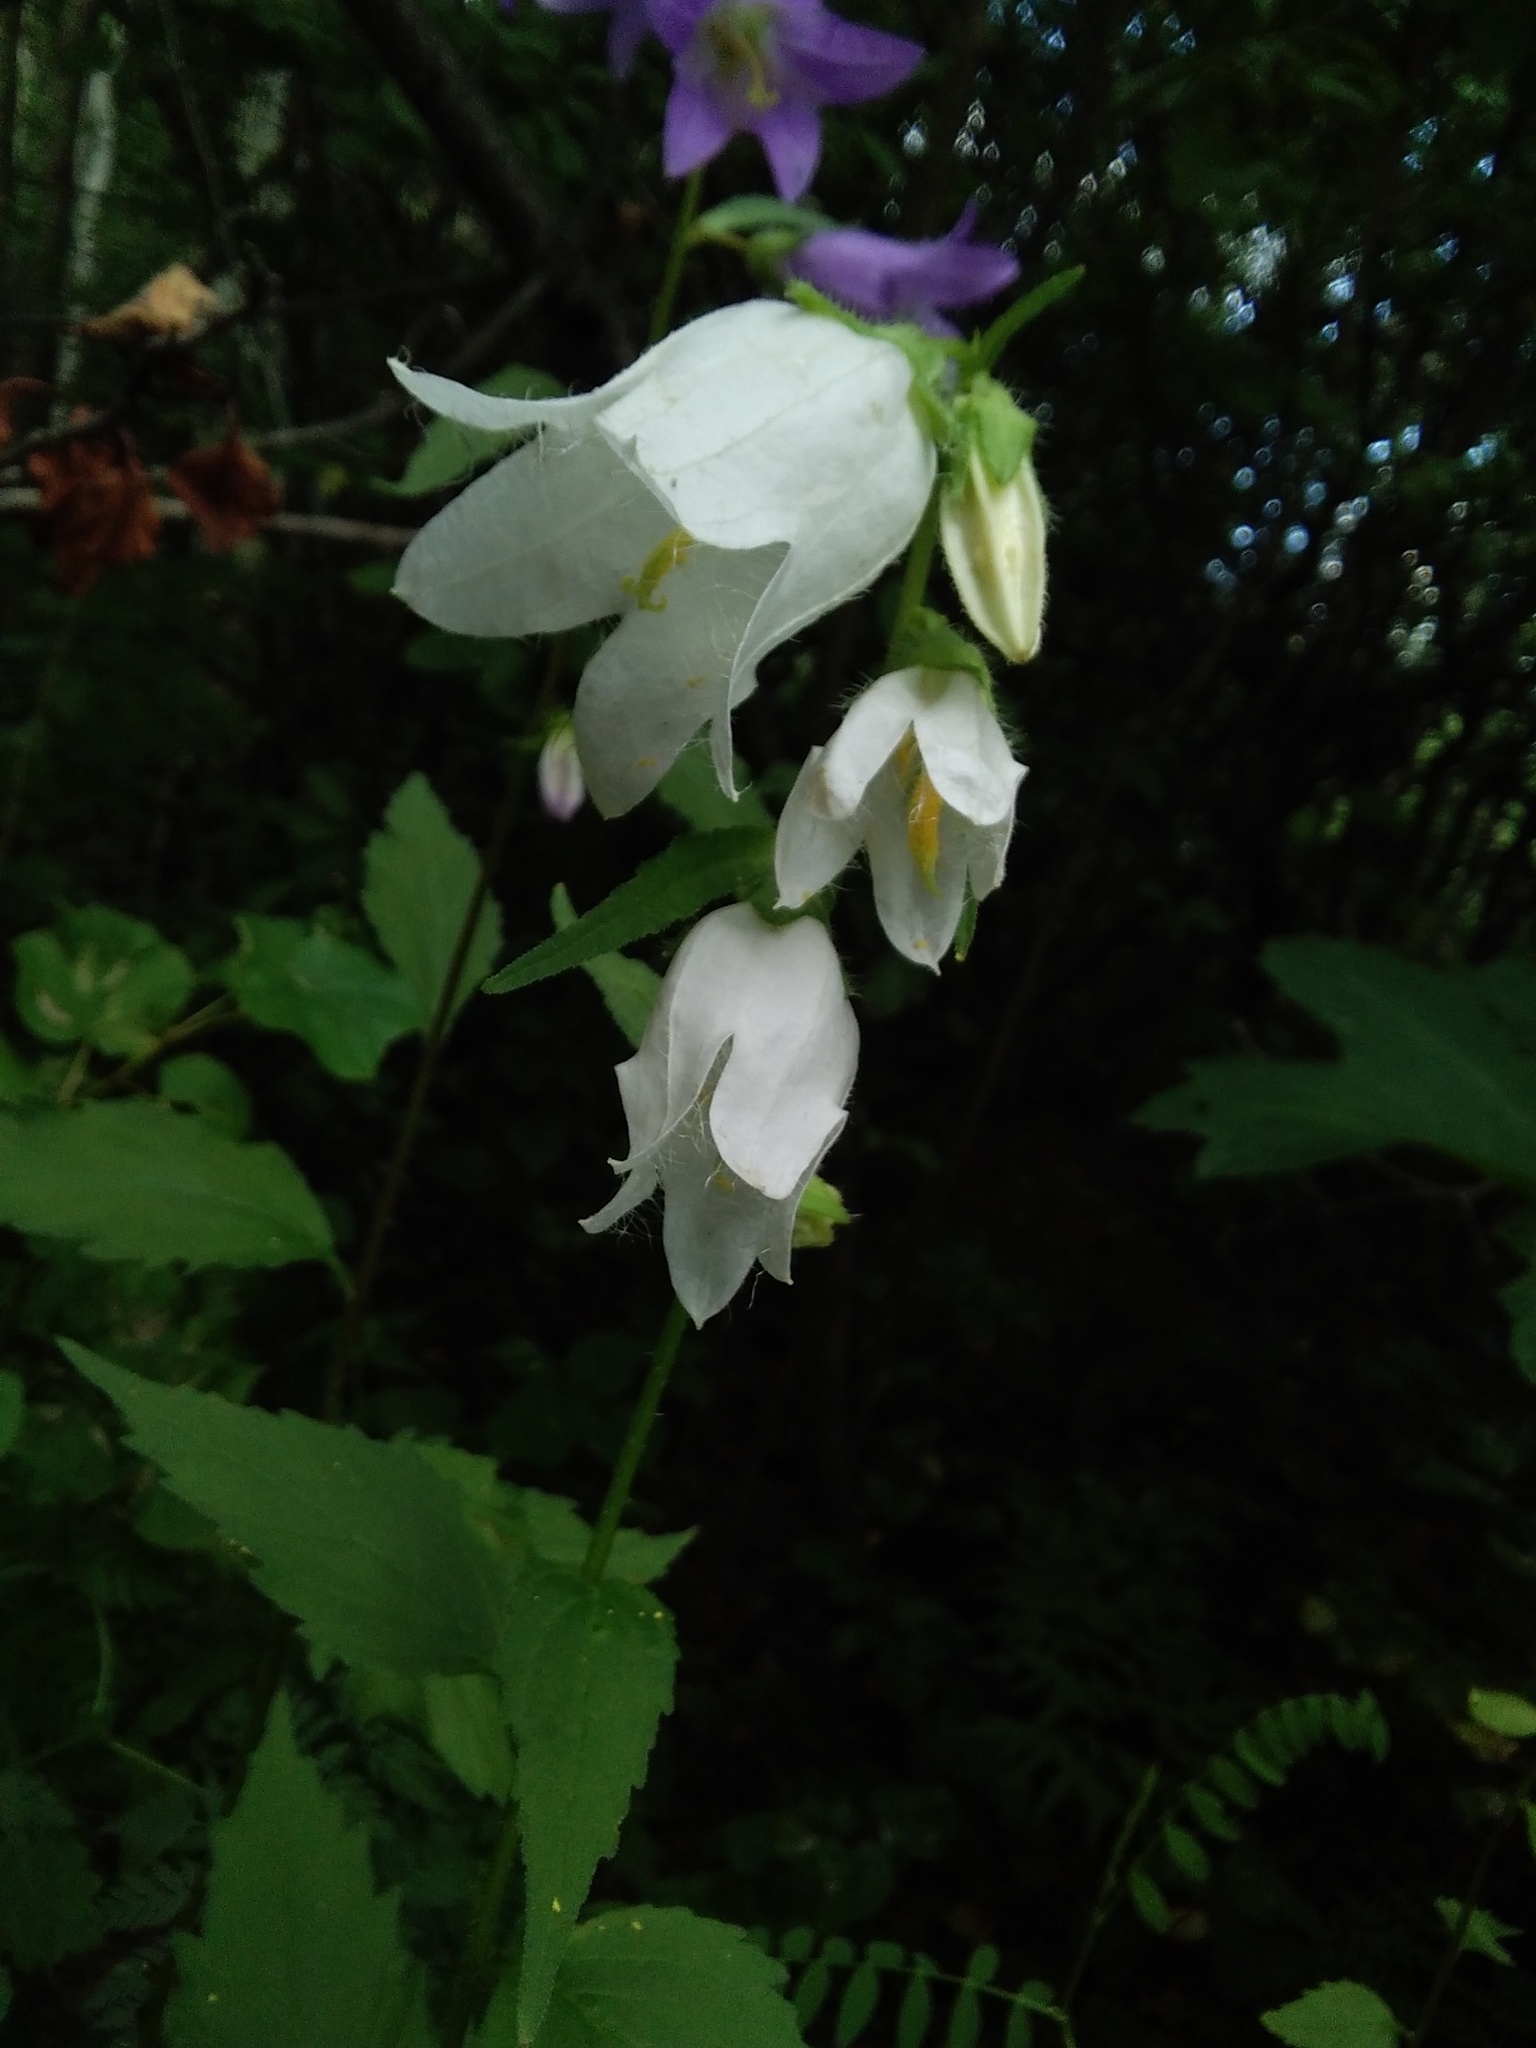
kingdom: Plantae
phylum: Tracheophyta
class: Magnoliopsida
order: Asterales
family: Campanulaceae
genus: Campanula
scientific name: Campanula trachelium
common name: Nettle-leaved bellflower
